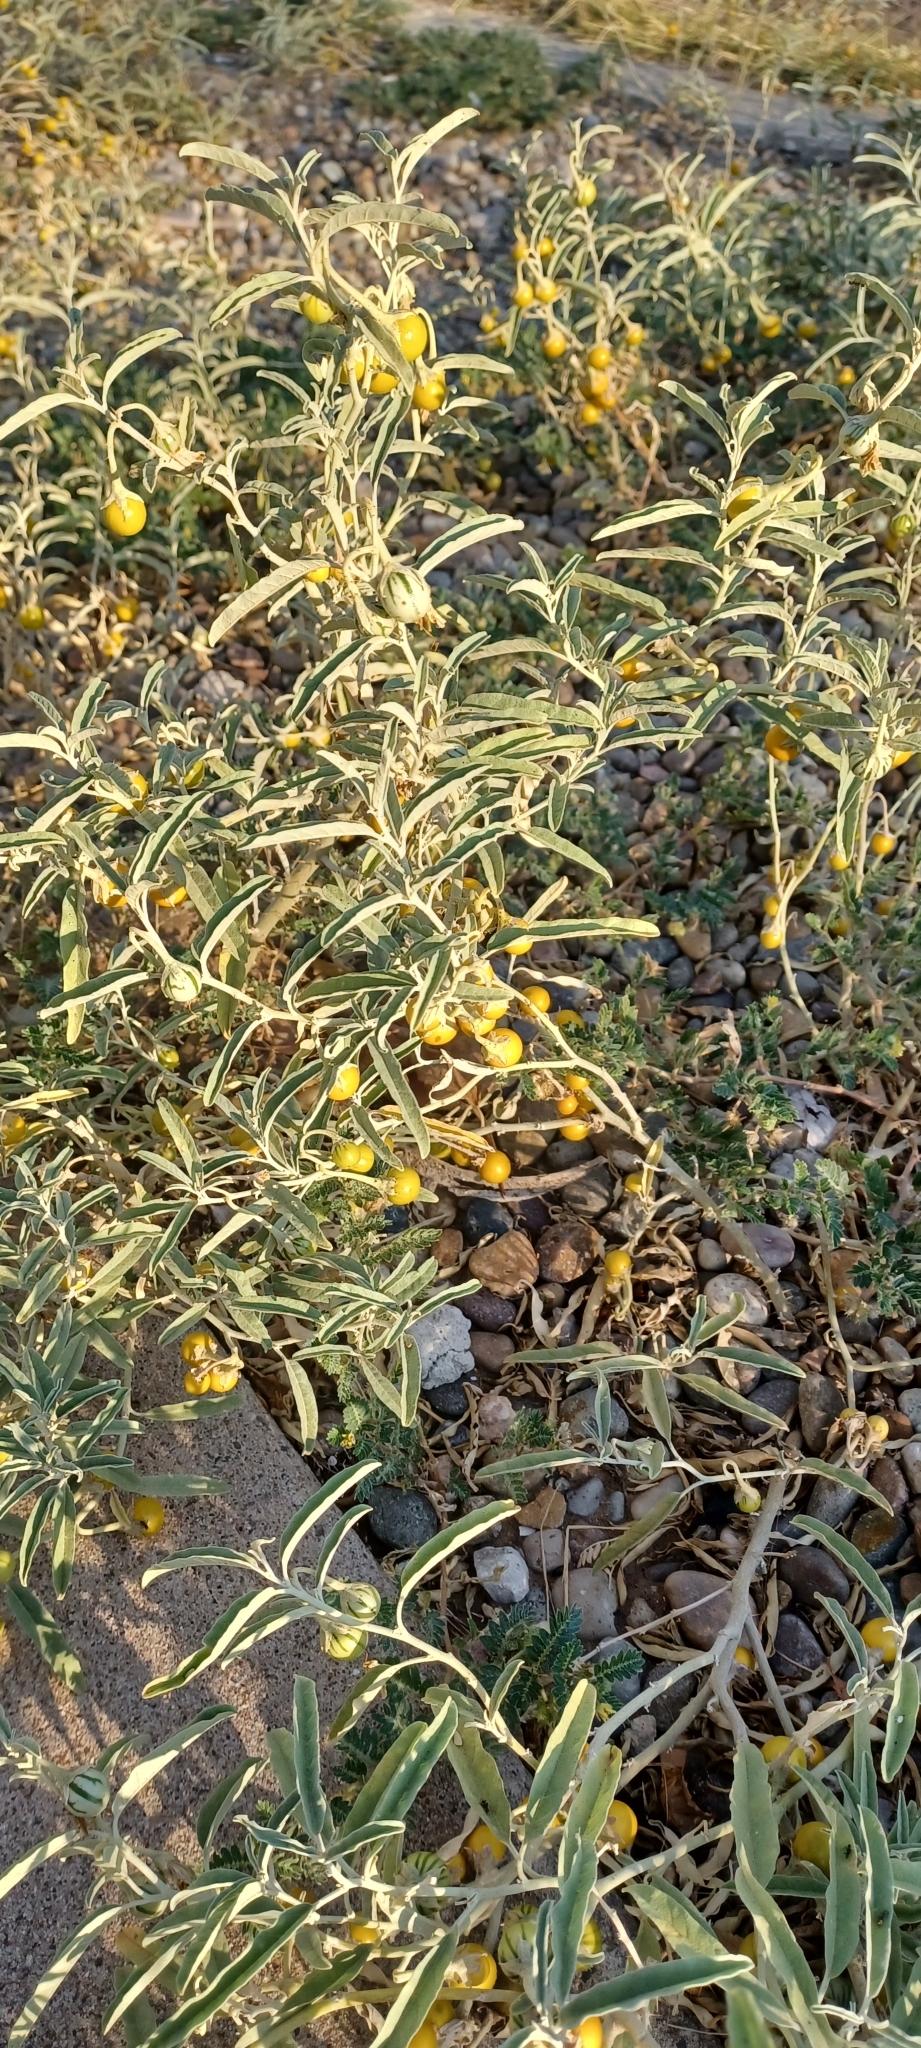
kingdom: Plantae
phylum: Tracheophyta
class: Magnoliopsida
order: Solanales
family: Solanaceae
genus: Solanum
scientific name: Solanum elaeagnifolium
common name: Silverleaf nightshade
